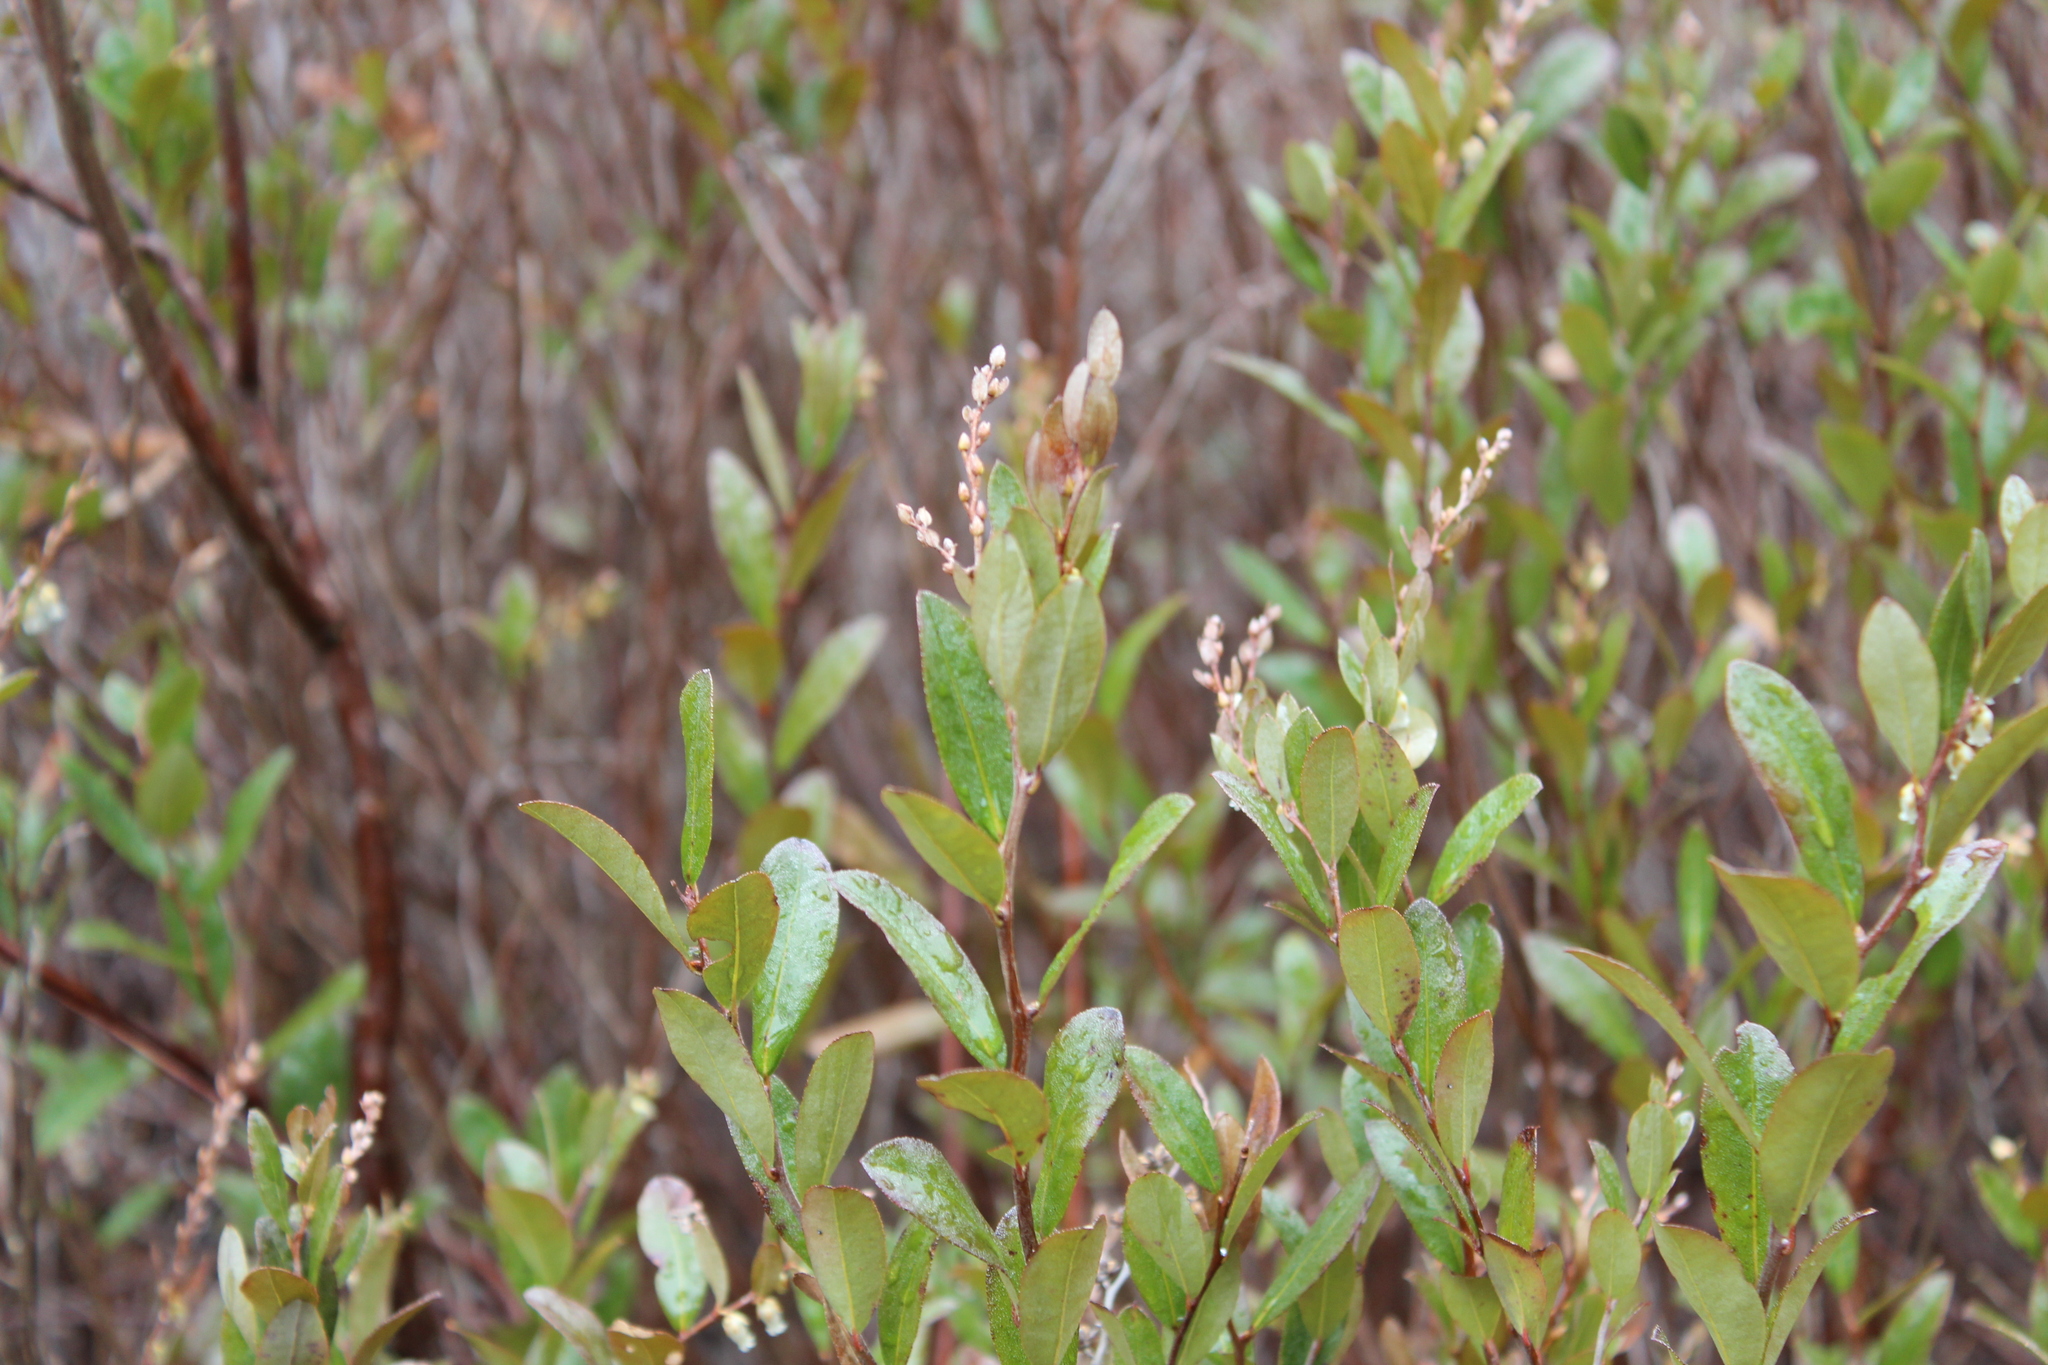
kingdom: Plantae
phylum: Tracheophyta
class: Magnoliopsida
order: Ericales
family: Ericaceae
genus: Chamaedaphne
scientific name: Chamaedaphne calyculata
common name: Leatherleaf
